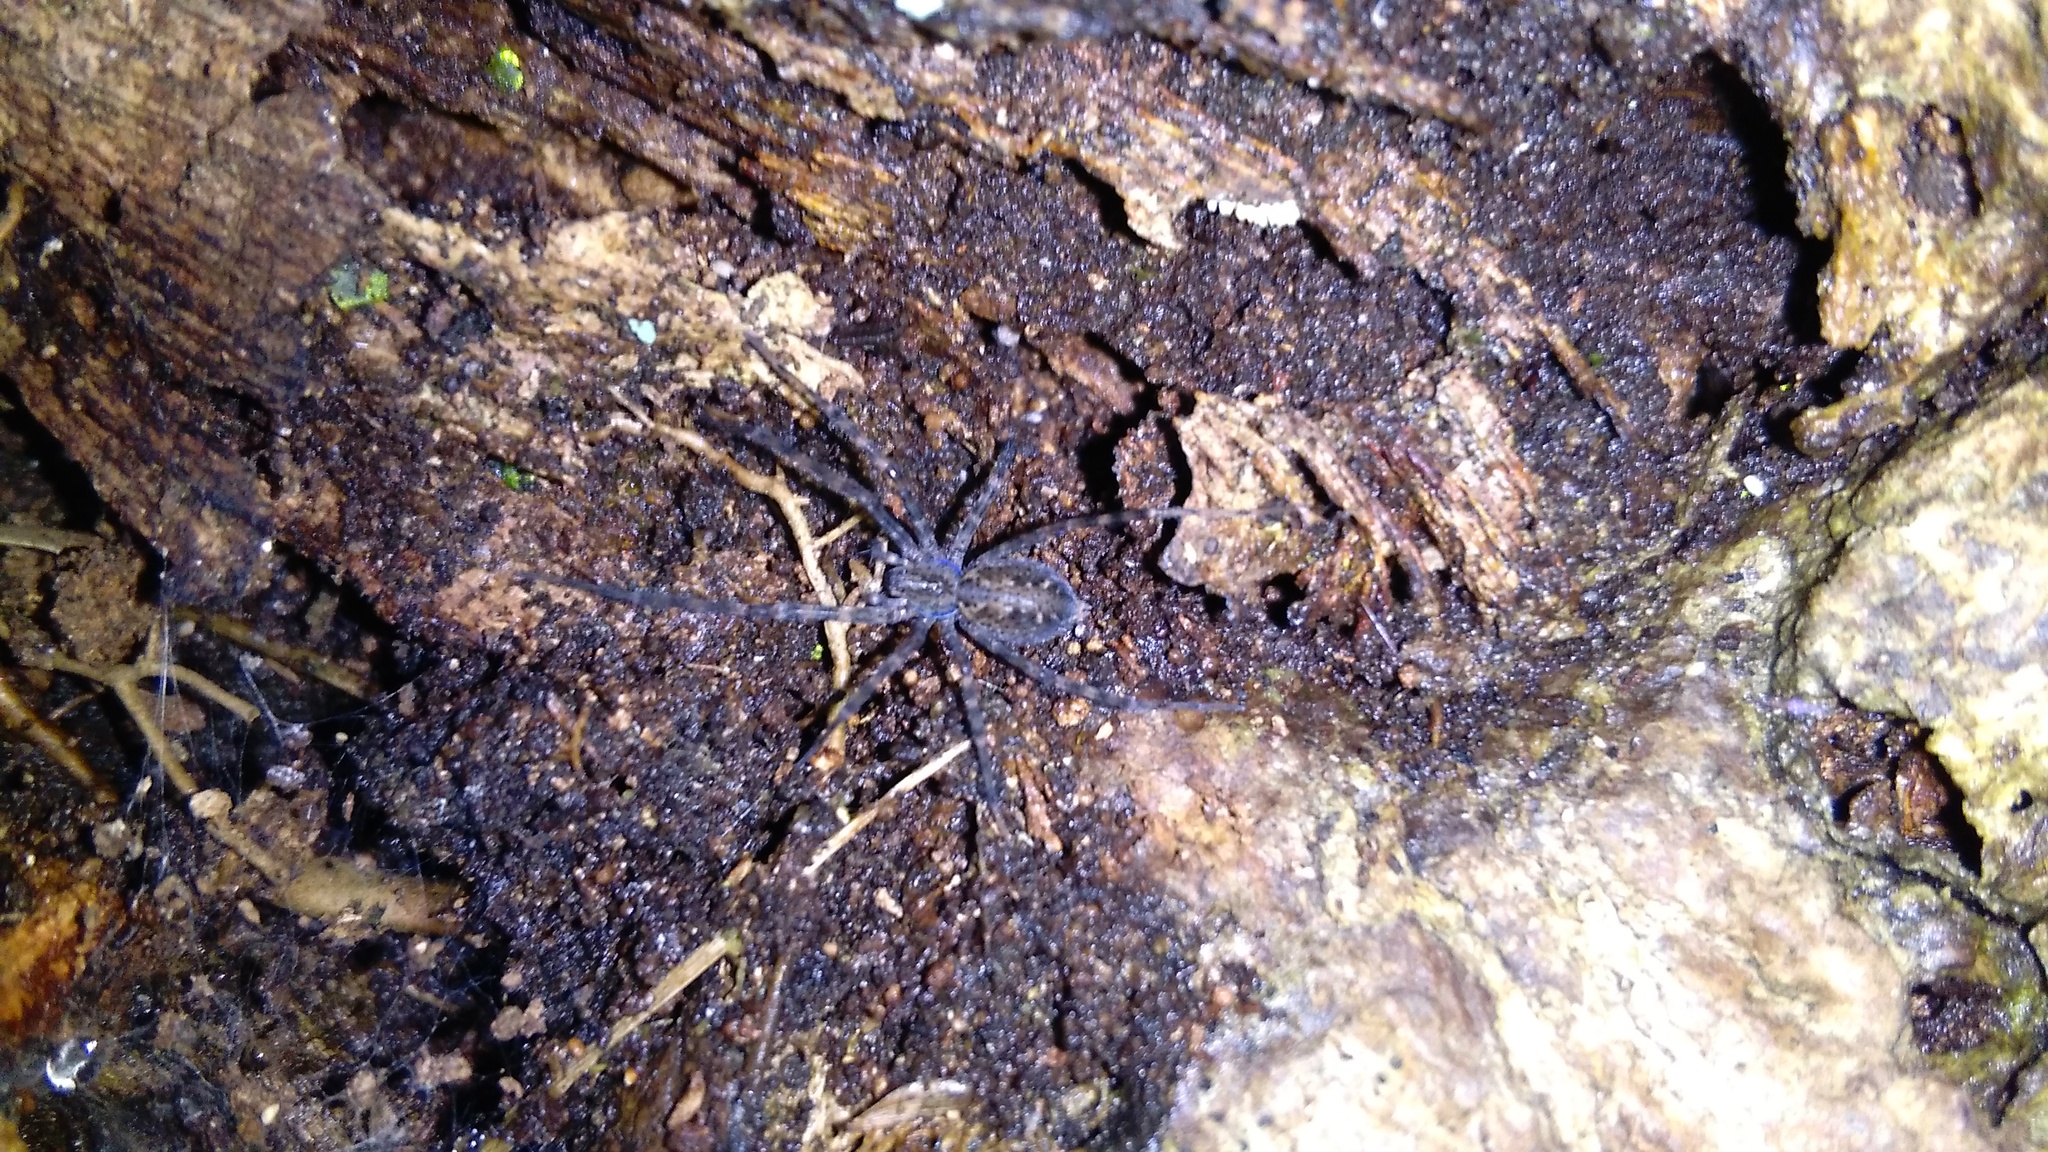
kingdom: Animalia
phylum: Arthropoda
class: Arachnida
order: Araneae
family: Stiphidiidae
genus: Stiphidion
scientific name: Stiphidion facetum
